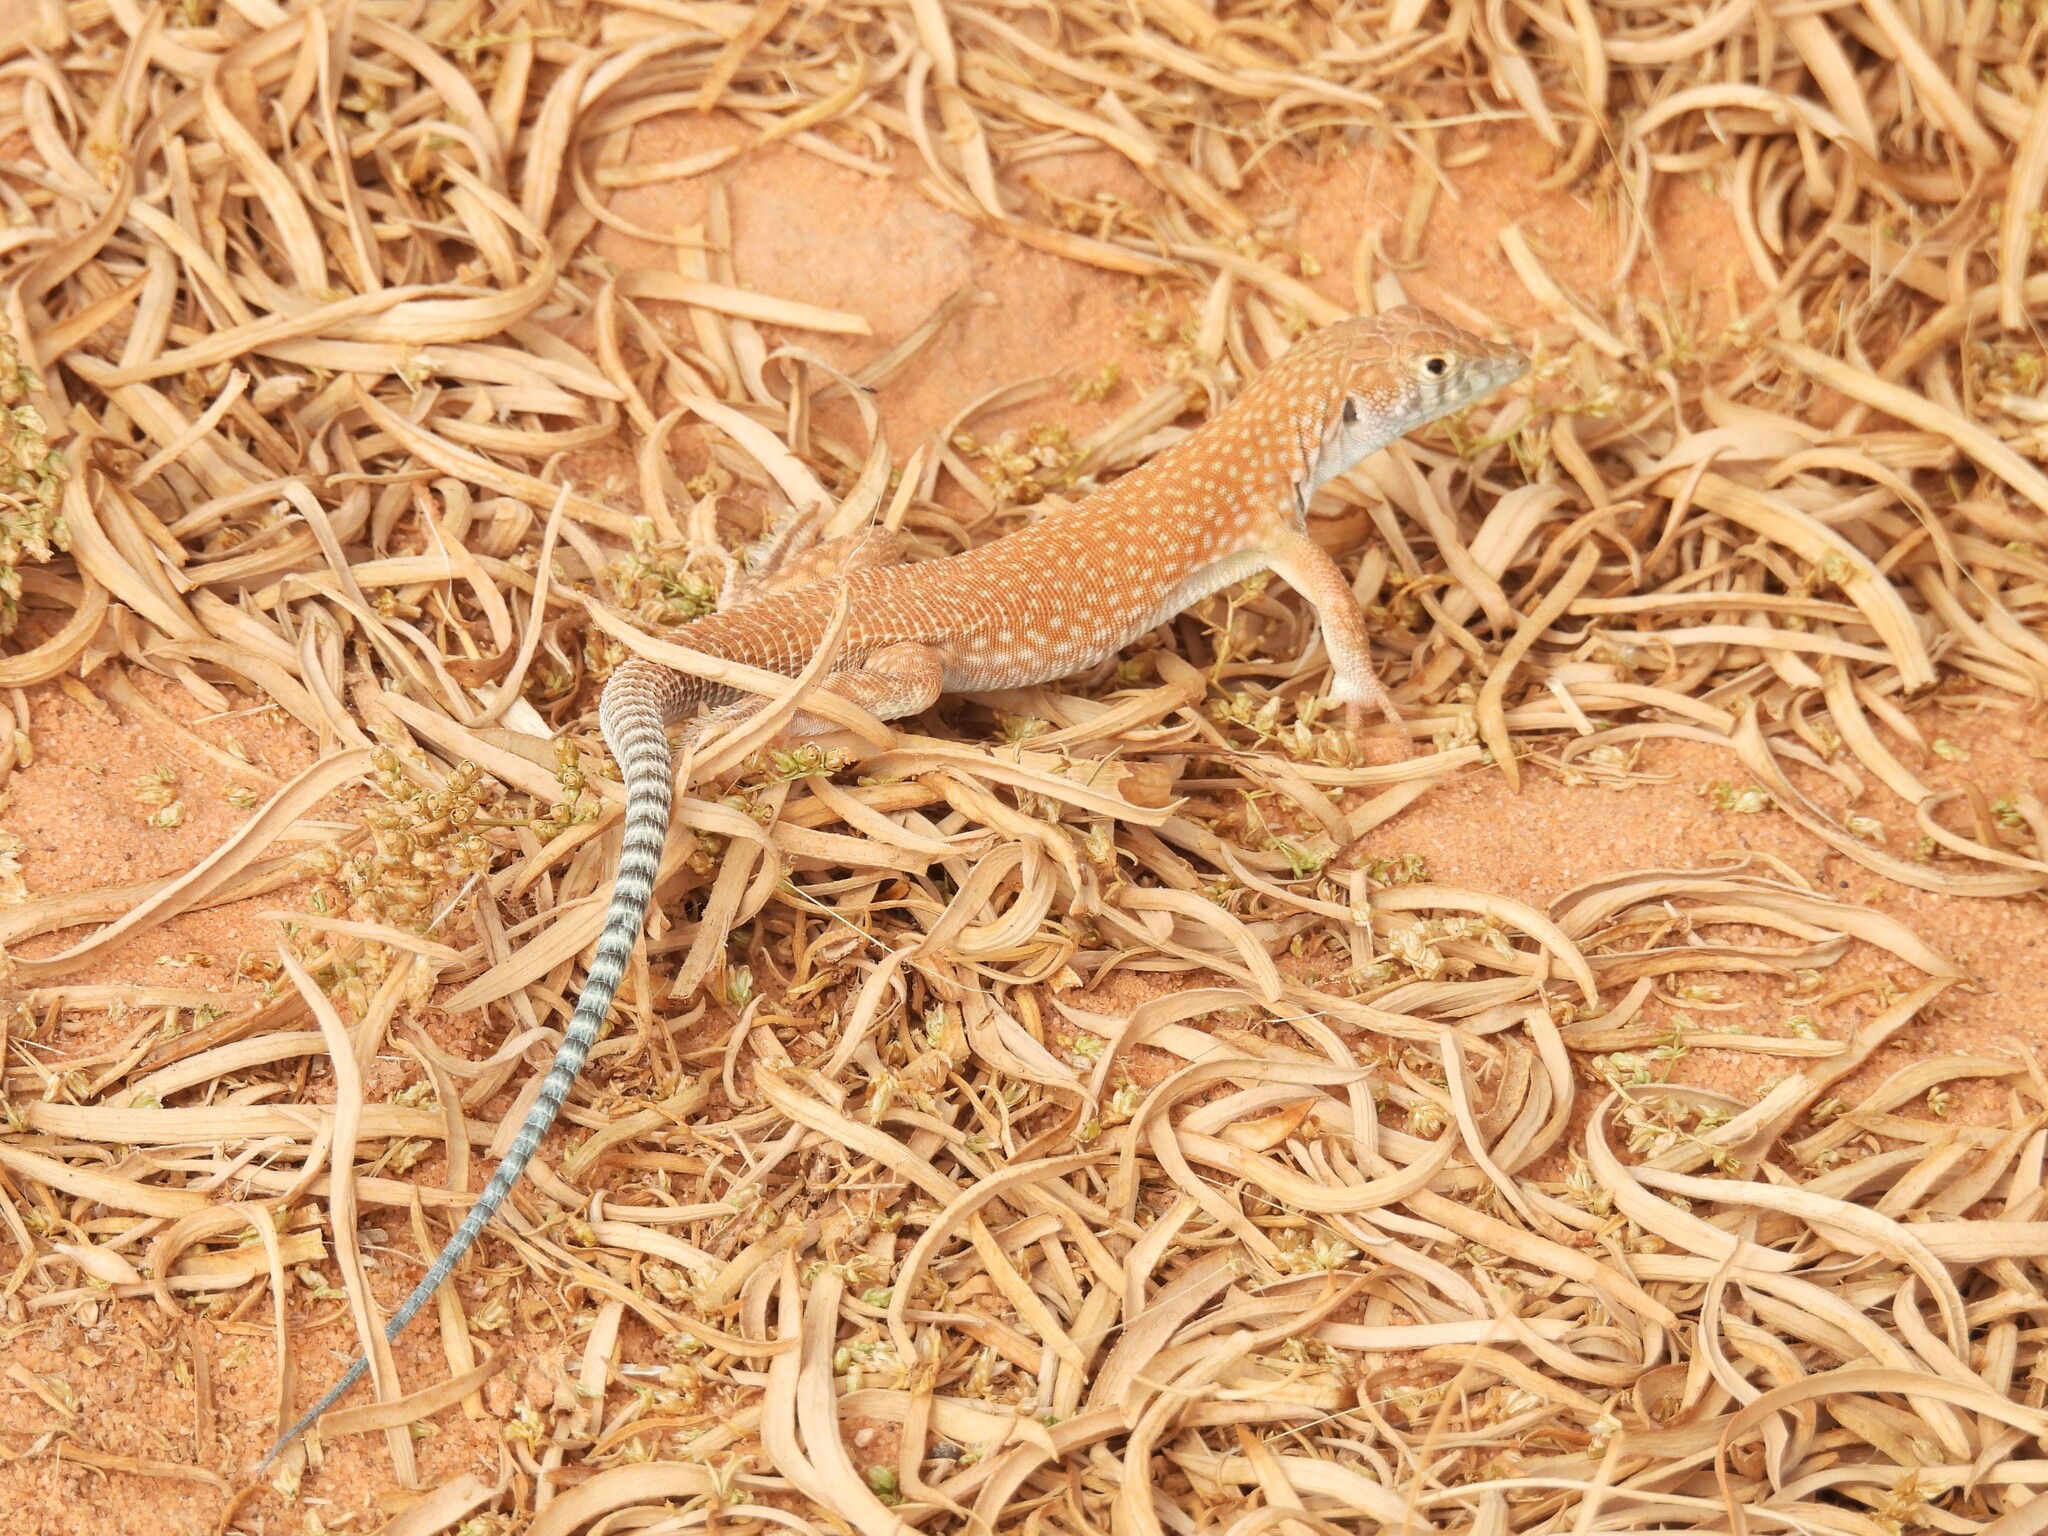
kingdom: Animalia
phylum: Chordata
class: Squamata
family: Lacertidae
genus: Acanthodactylus
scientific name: Acanthodactylus schmidti
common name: Schmidt's fringe-toed lizard
